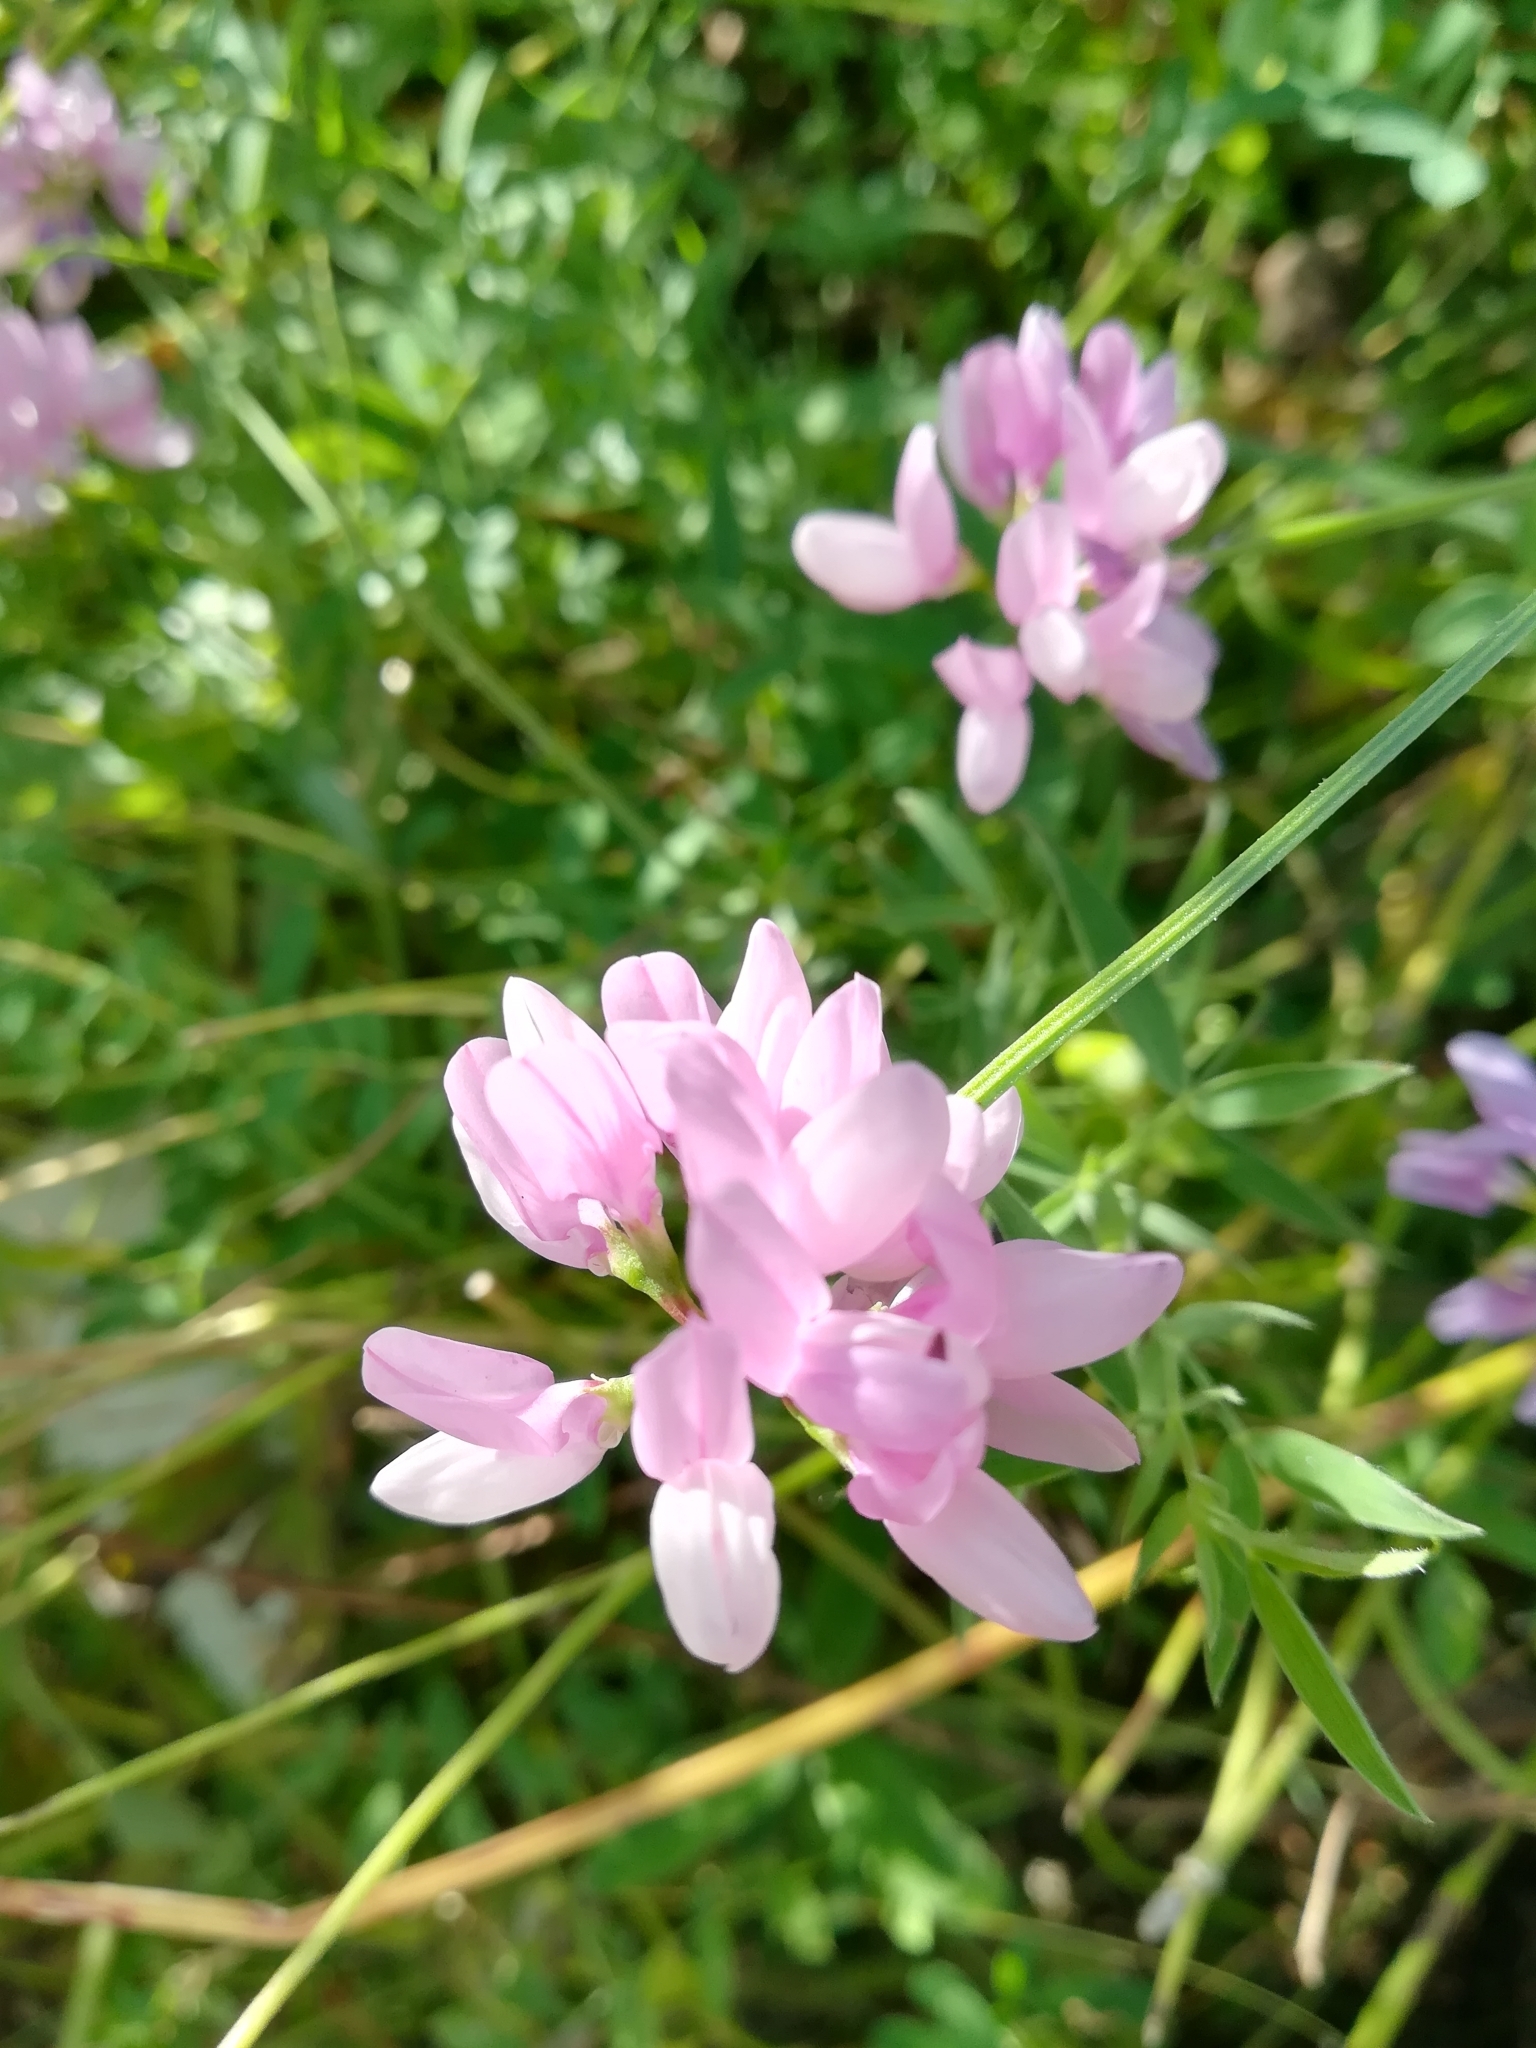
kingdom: Plantae
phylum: Tracheophyta
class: Magnoliopsida
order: Fabales
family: Fabaceae
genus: Coronilla
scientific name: Coronilla varia
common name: Crownvetch
